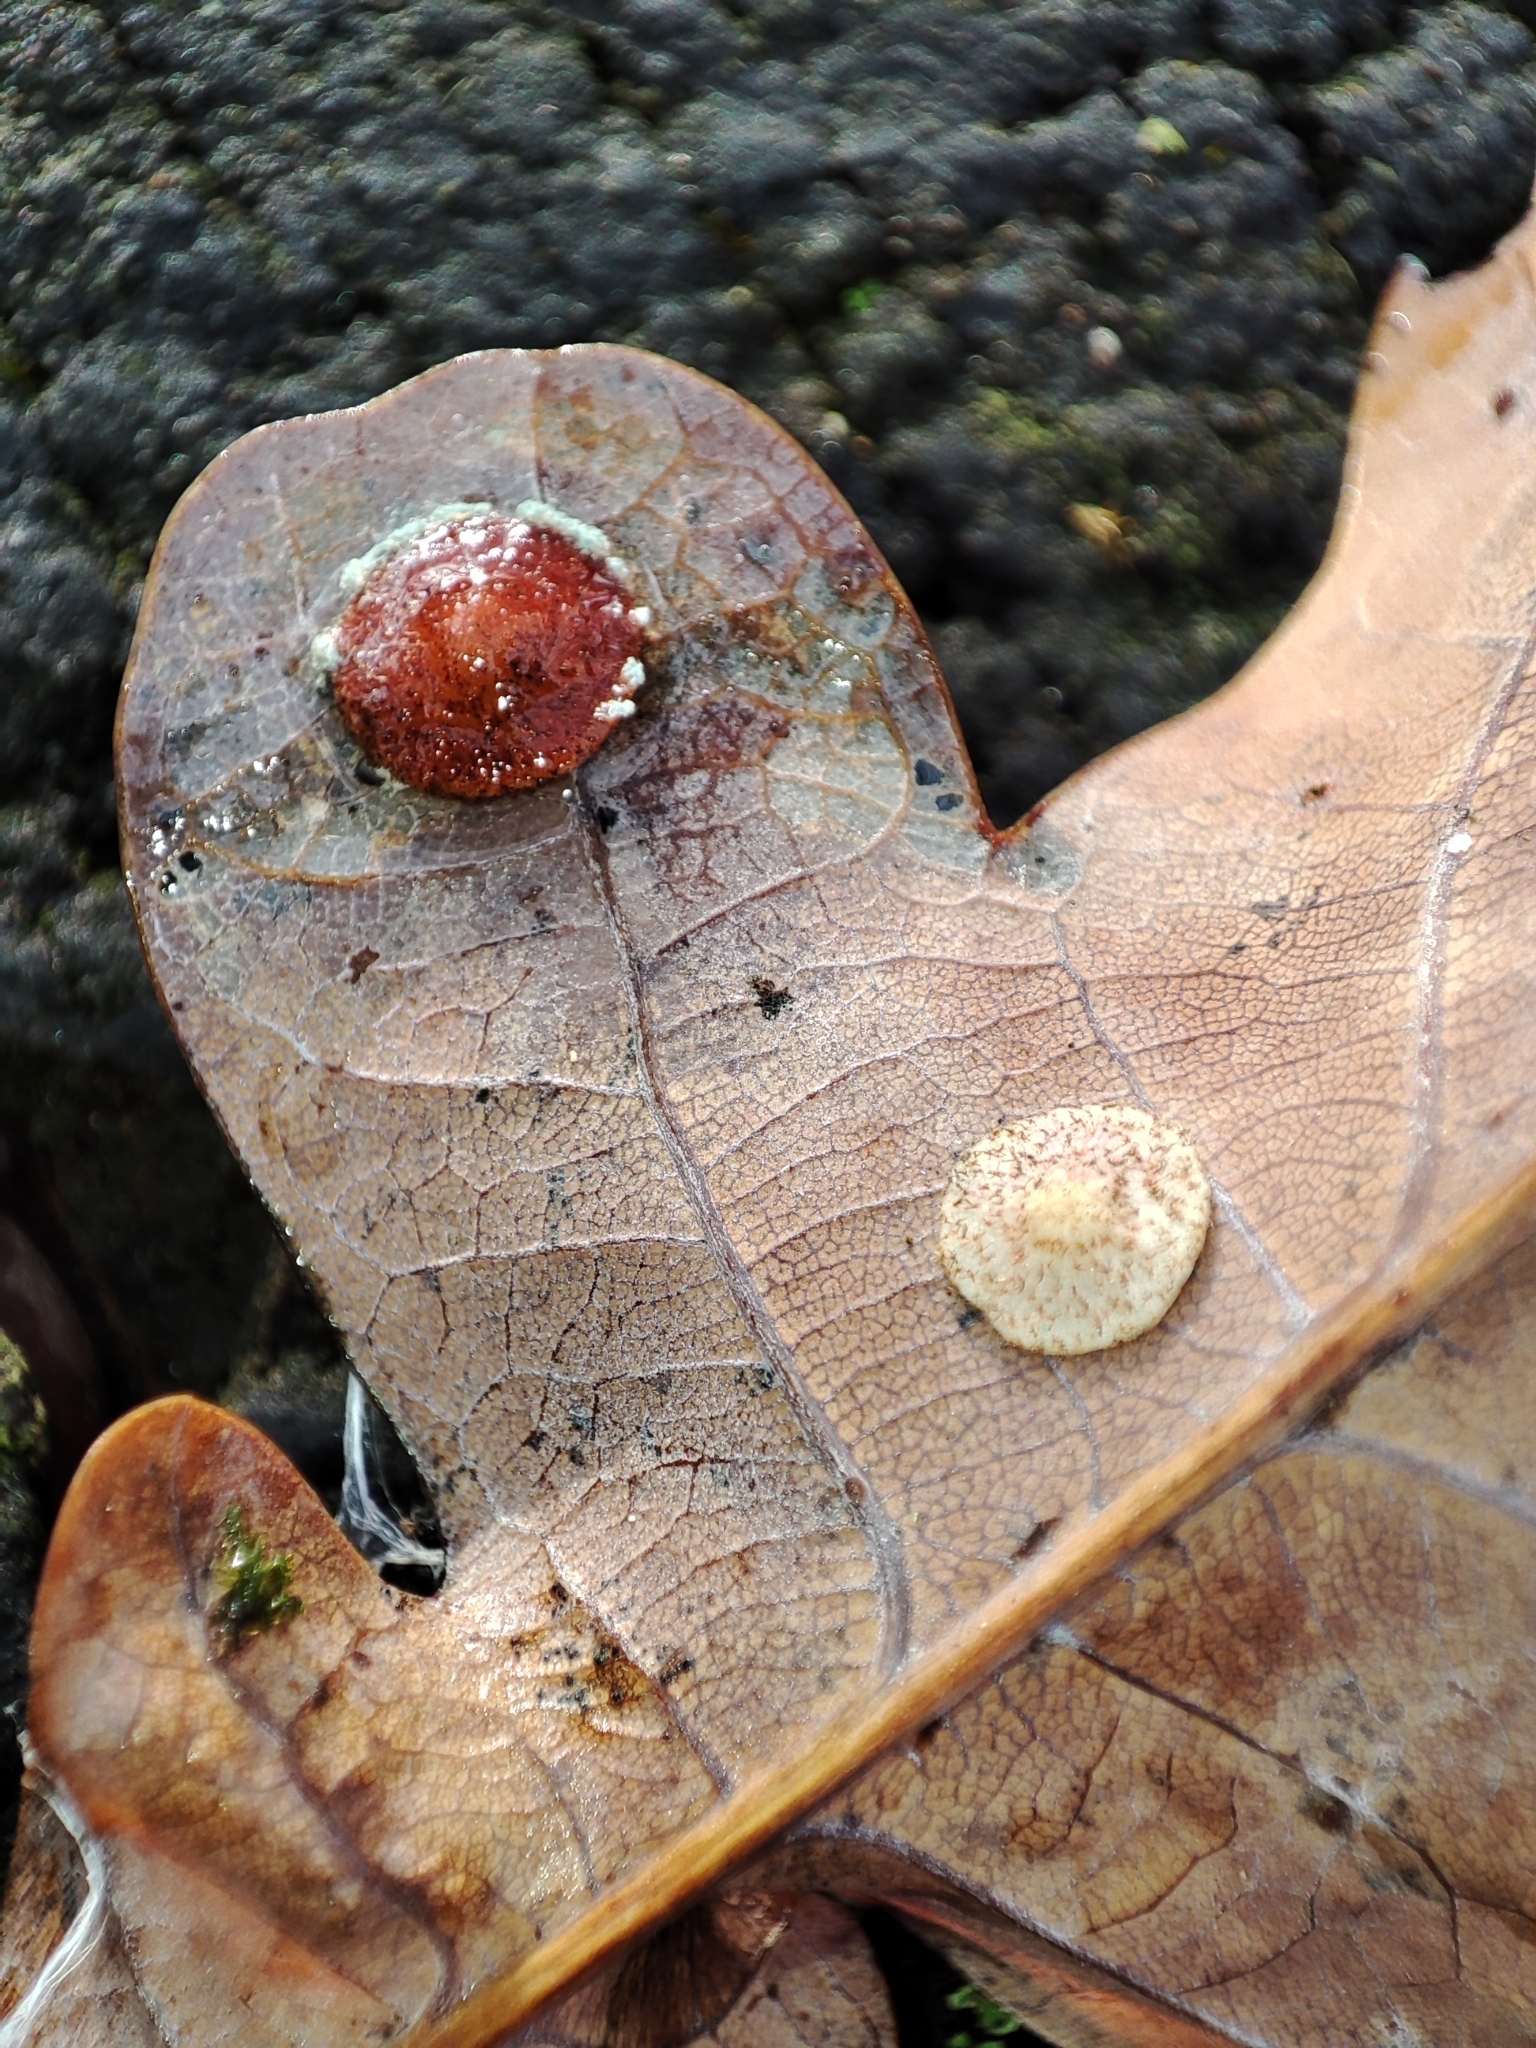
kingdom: Animalia
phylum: Arthropoda
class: Insecta
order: Hymenoptera
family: Cynipidae
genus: Neuroterus
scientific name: Neuroterus quercusbaccarum
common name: Common spangle gall
